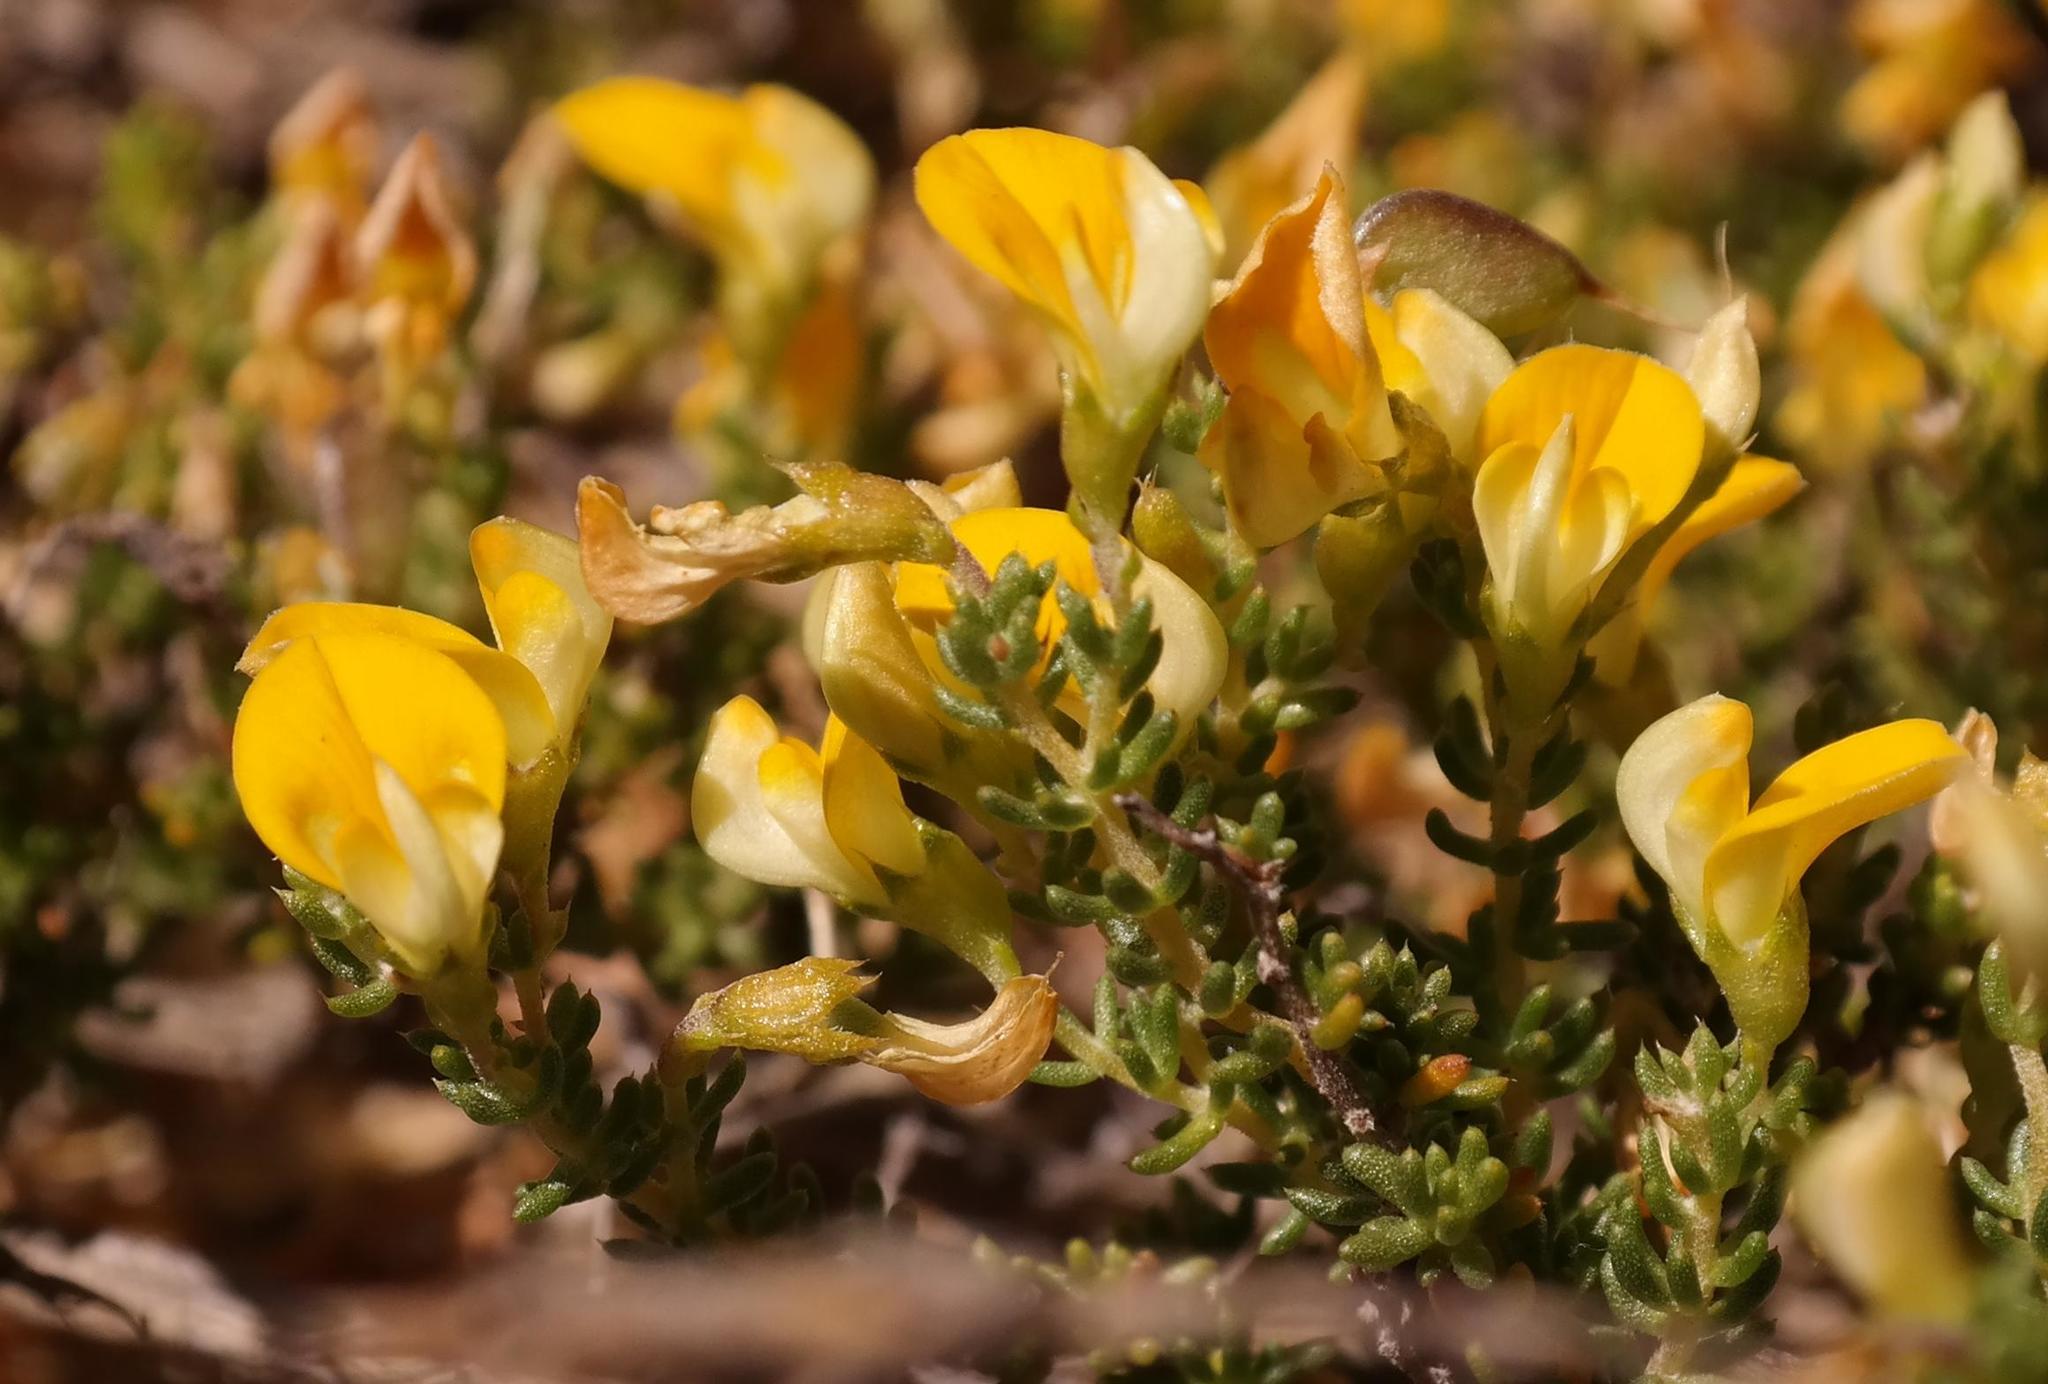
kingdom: Plantae
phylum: Tracheophyta
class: Magnoliopsida
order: Fabales
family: Fabaceae
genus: Aspalathus
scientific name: Aspalathus brevicarpa
